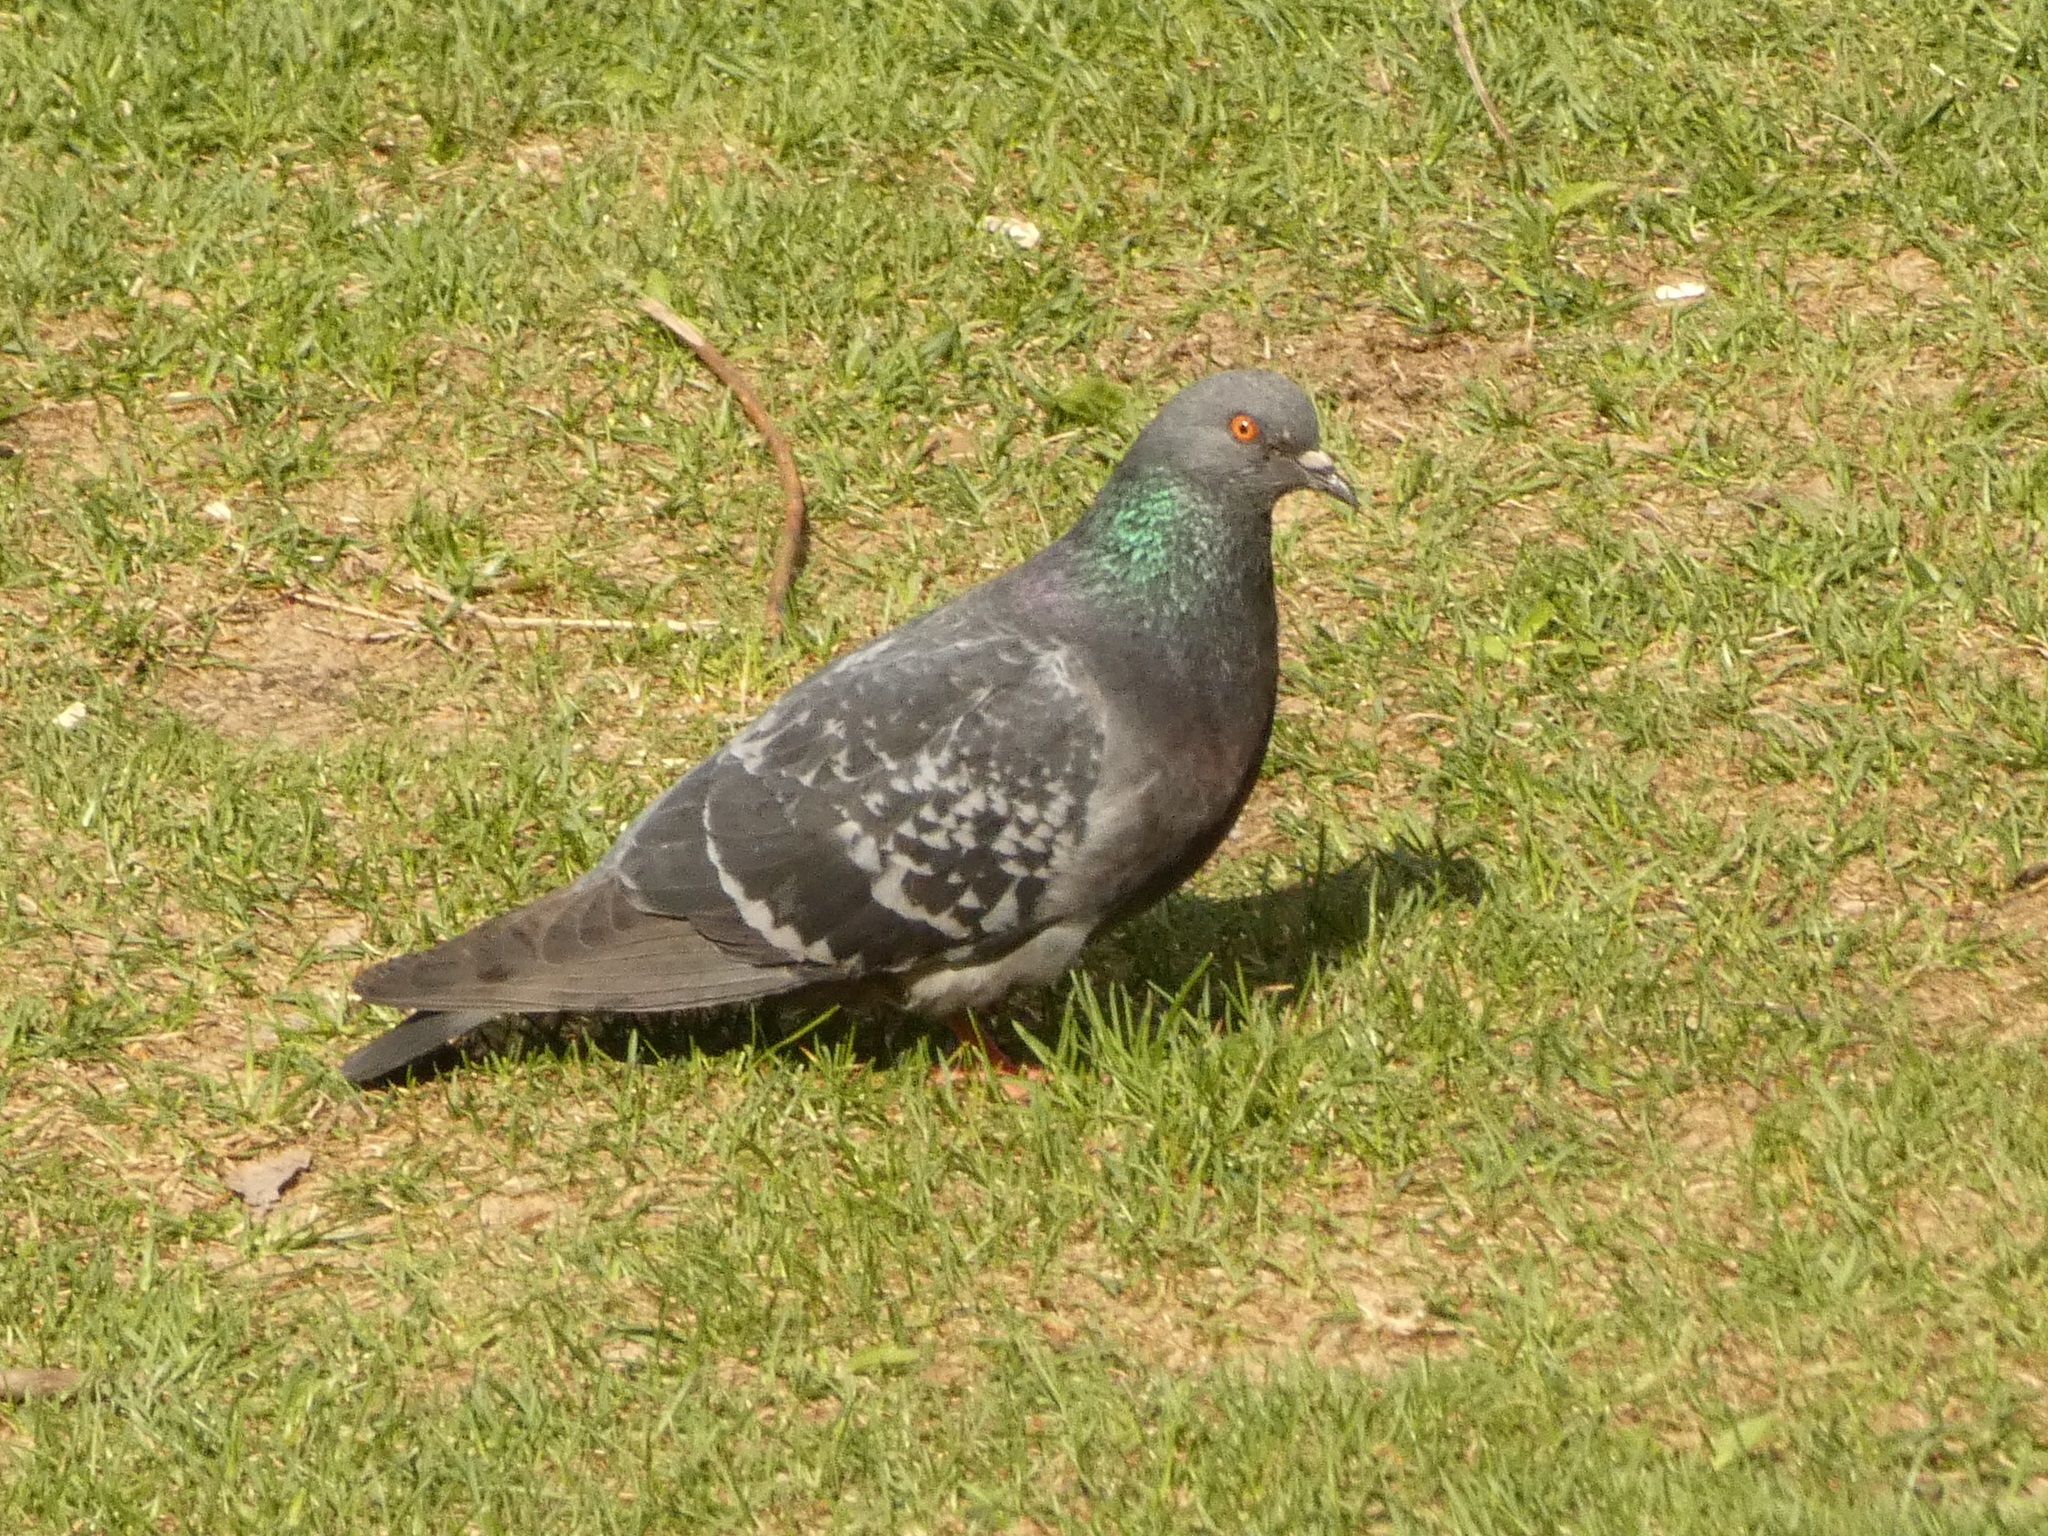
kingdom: Animalia
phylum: Chordata
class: Aves
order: Columbiformes
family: Columbidae
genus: Columba
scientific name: Columba livia
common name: Rock pigeon
